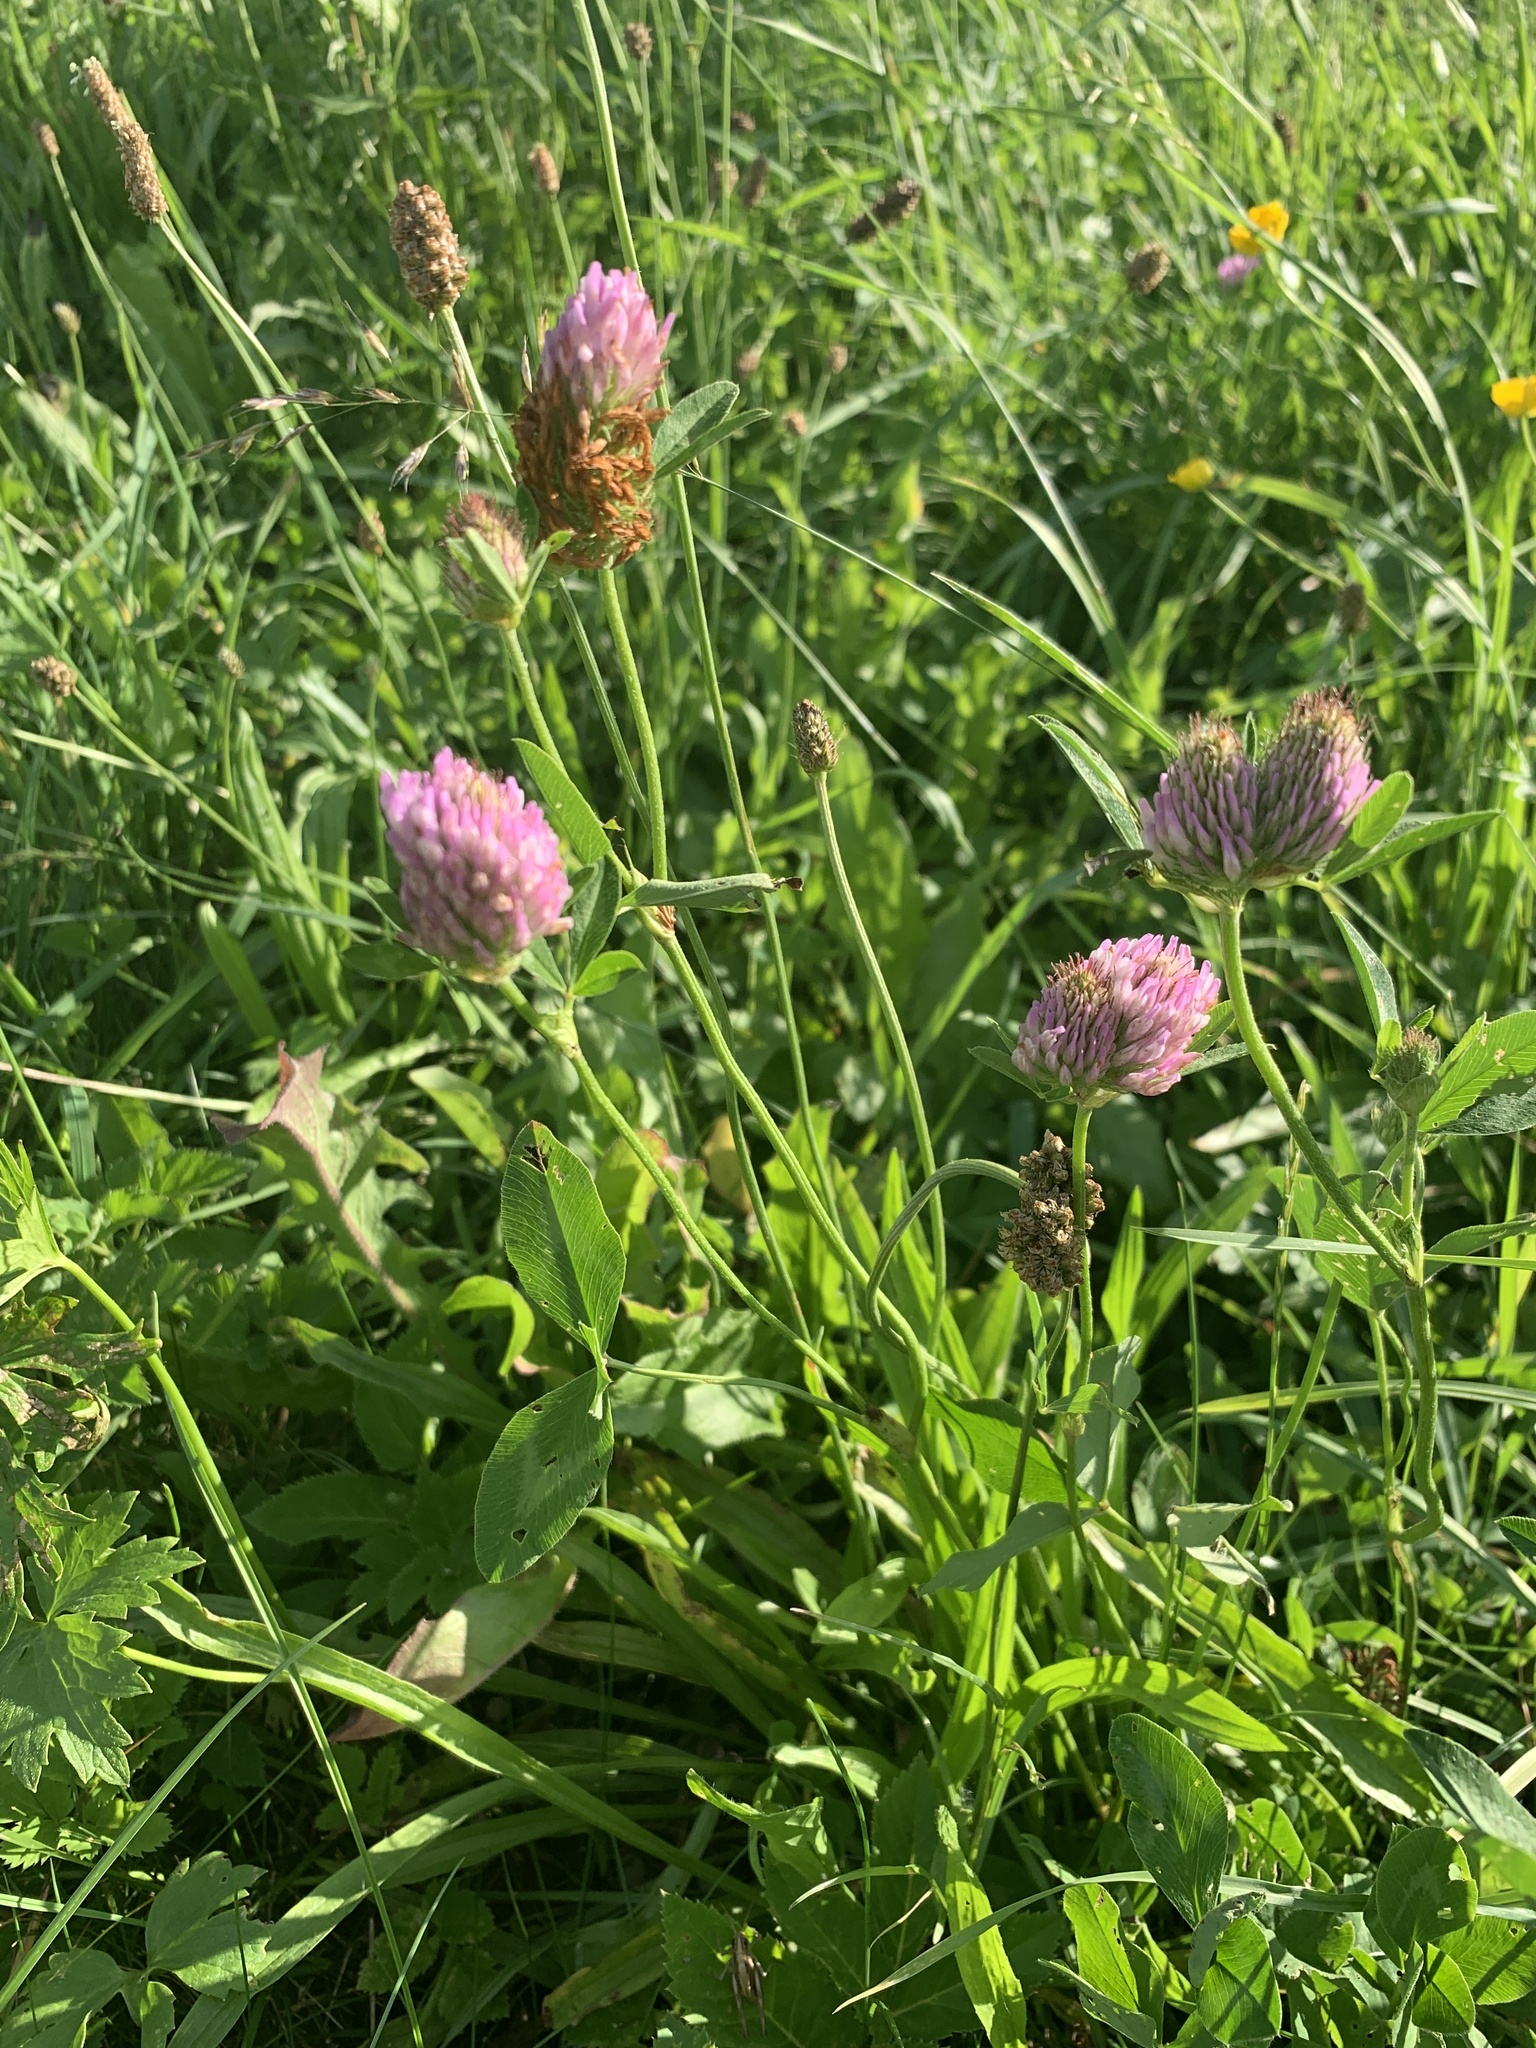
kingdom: Plantae
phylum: Tracheophyta
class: Magnoliopsida
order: Fabales
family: Fabaceae
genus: Trifolium
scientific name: Trifolium pratense
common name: Red clover
